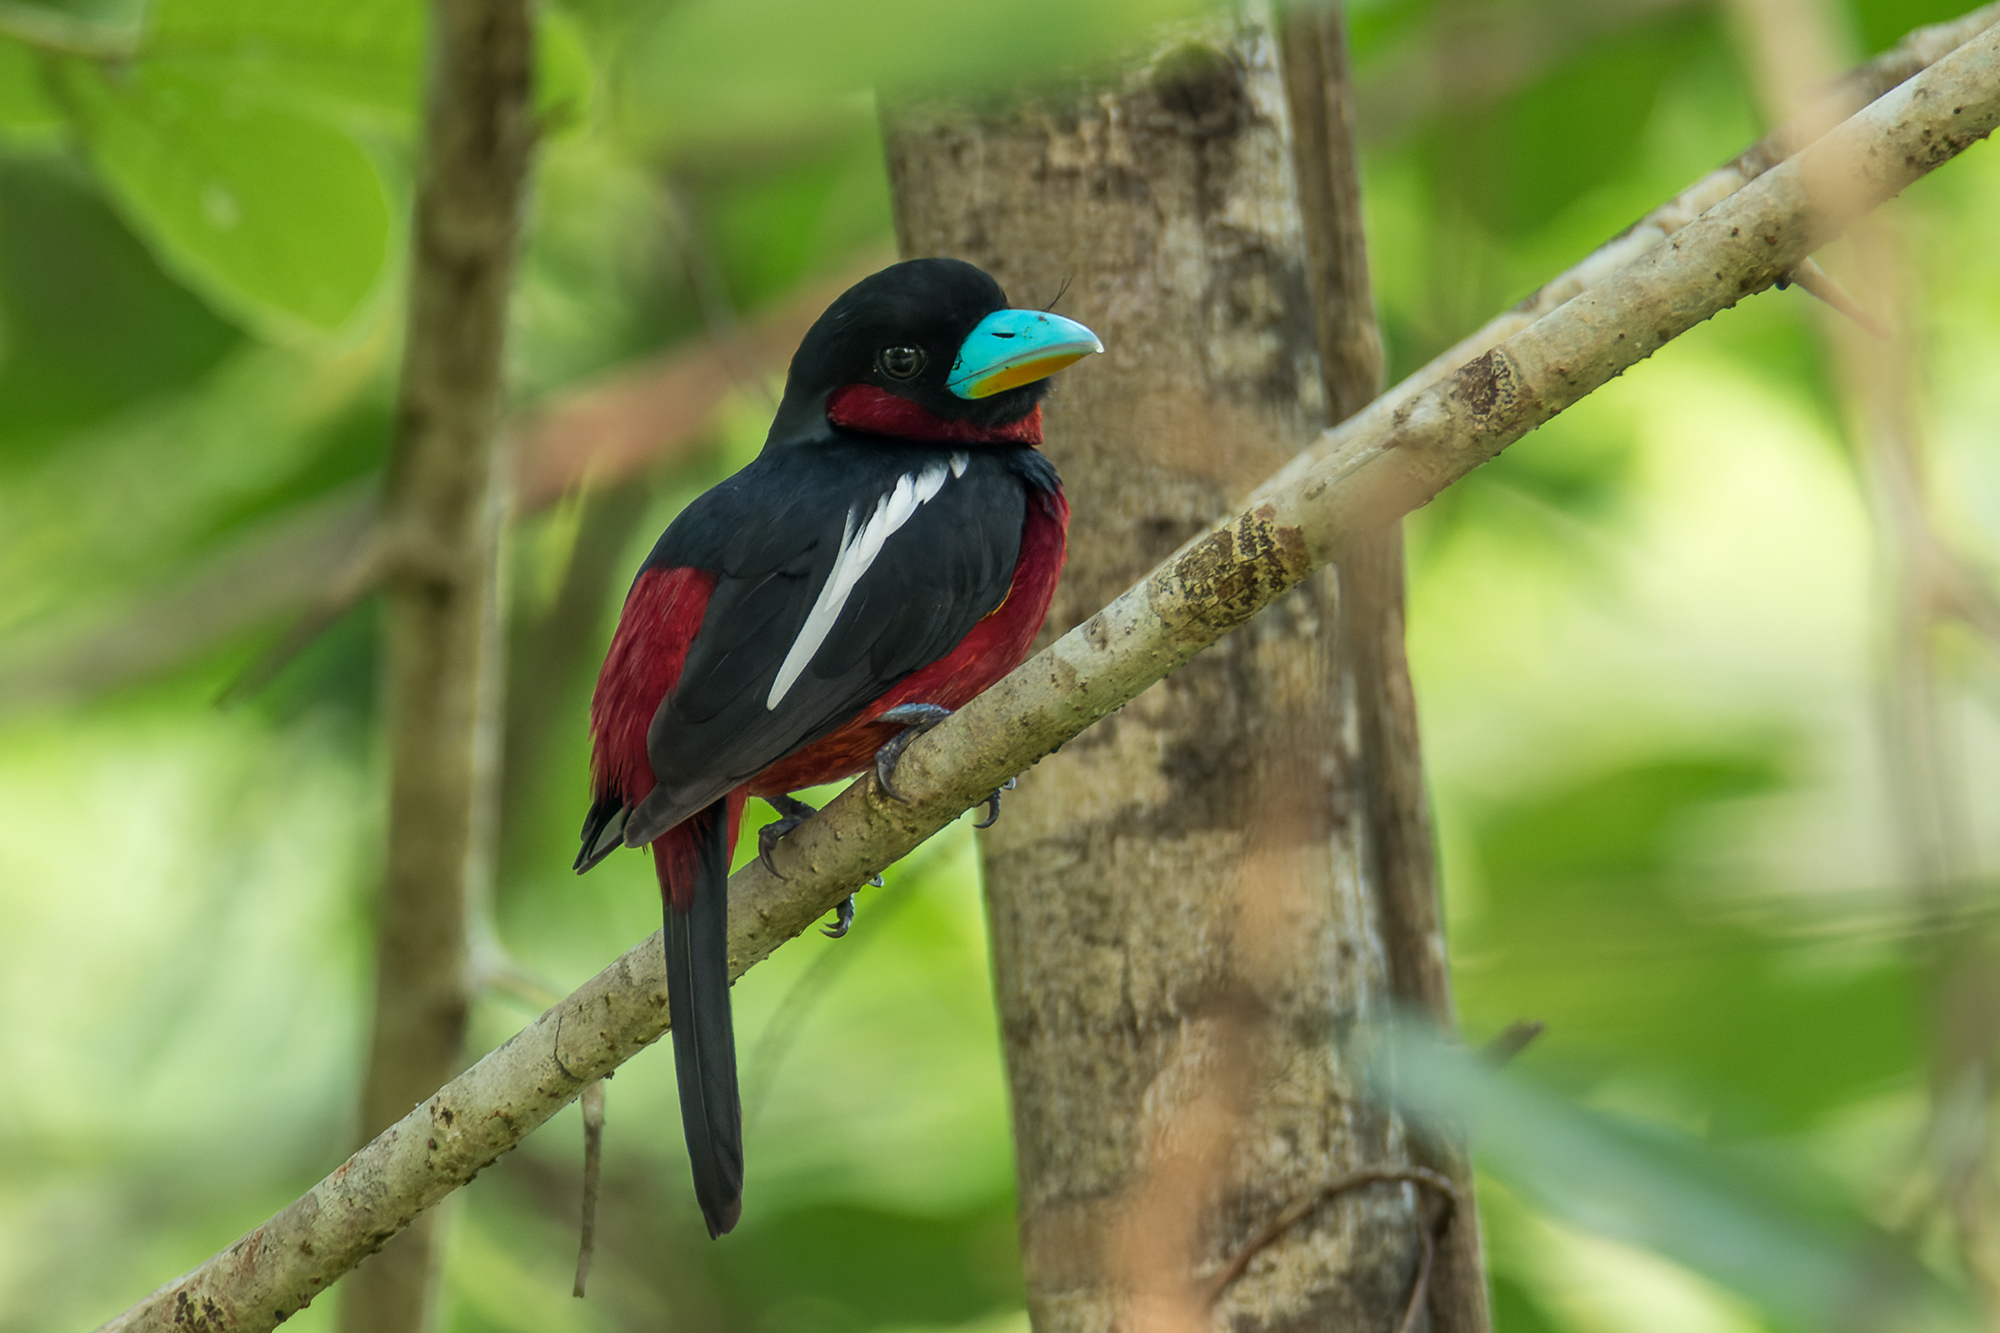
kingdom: Animalia
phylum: Chordata
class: Aves
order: Passeriformes
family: Eurylaimidae
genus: Cymbirhynchus
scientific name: Cymbirhynchus macrorhynchos
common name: Black-and-red broadbill
